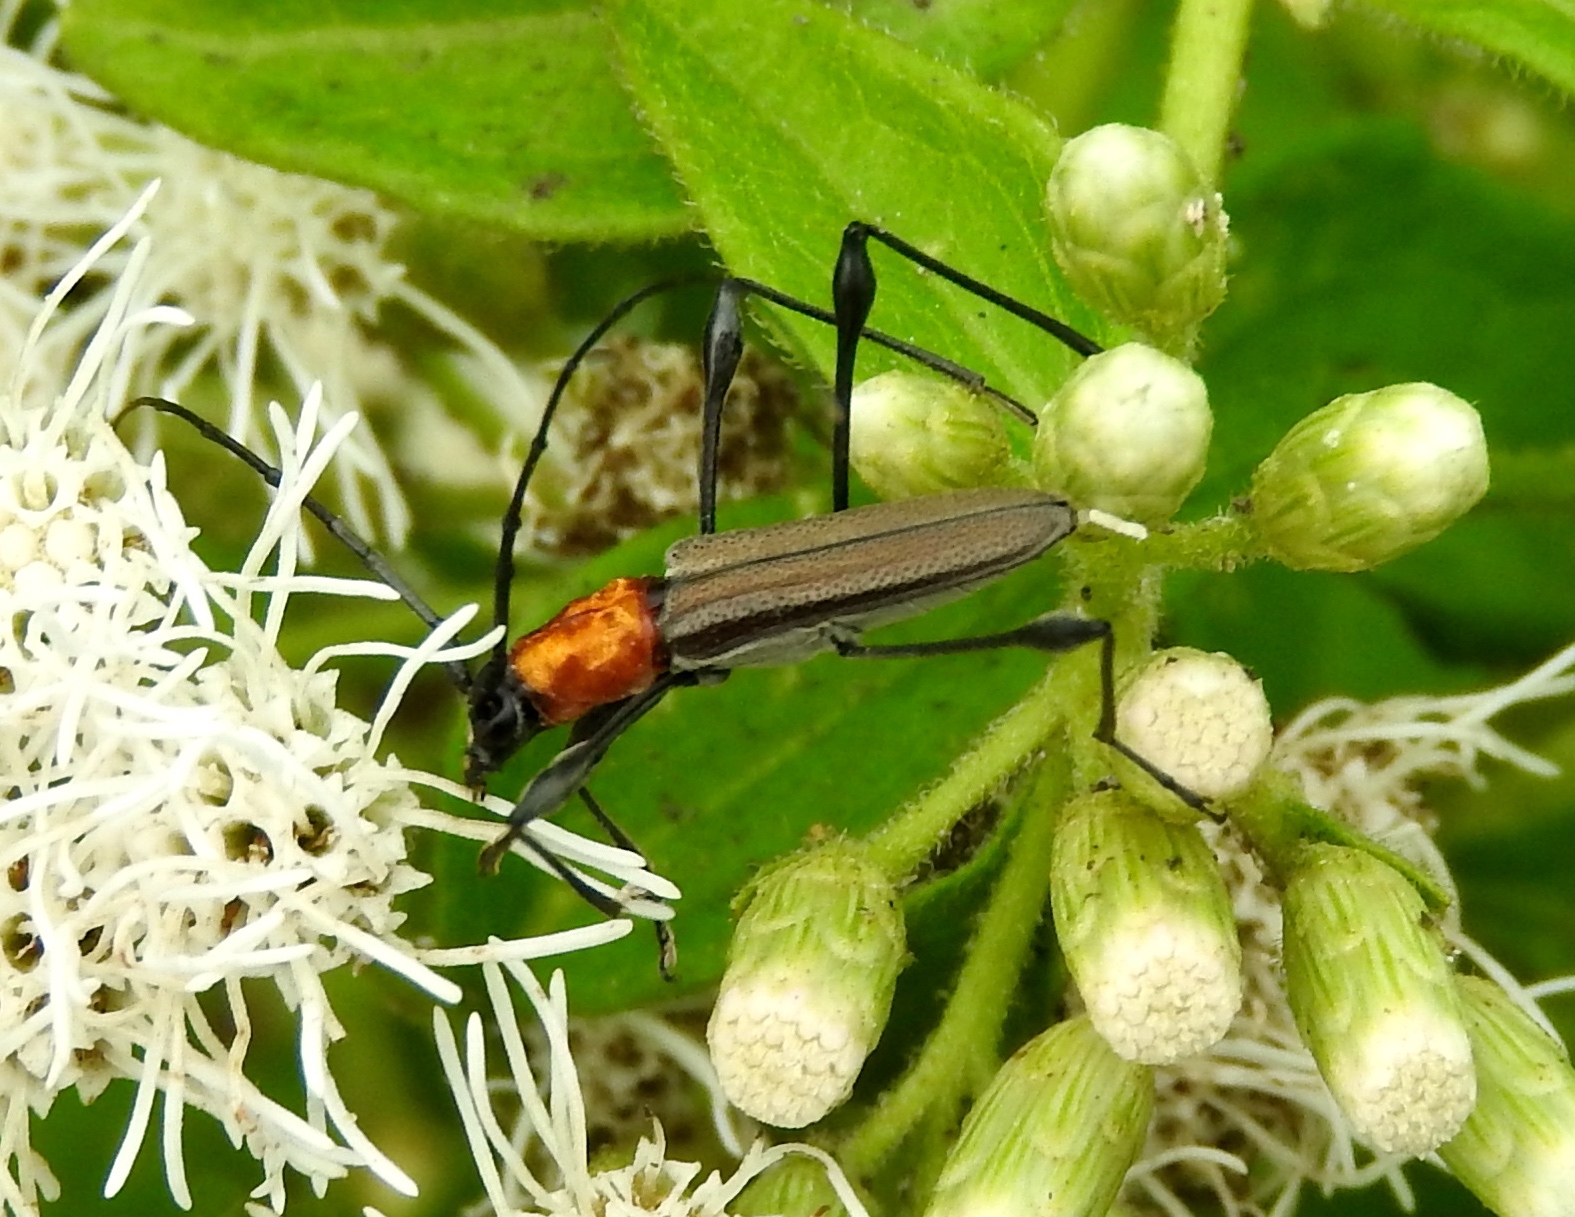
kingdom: Animalia
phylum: Arthropoda
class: Insecta
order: Coleoptera
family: Cerambycidae
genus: Rhopalophora
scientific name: Rhopalophora
